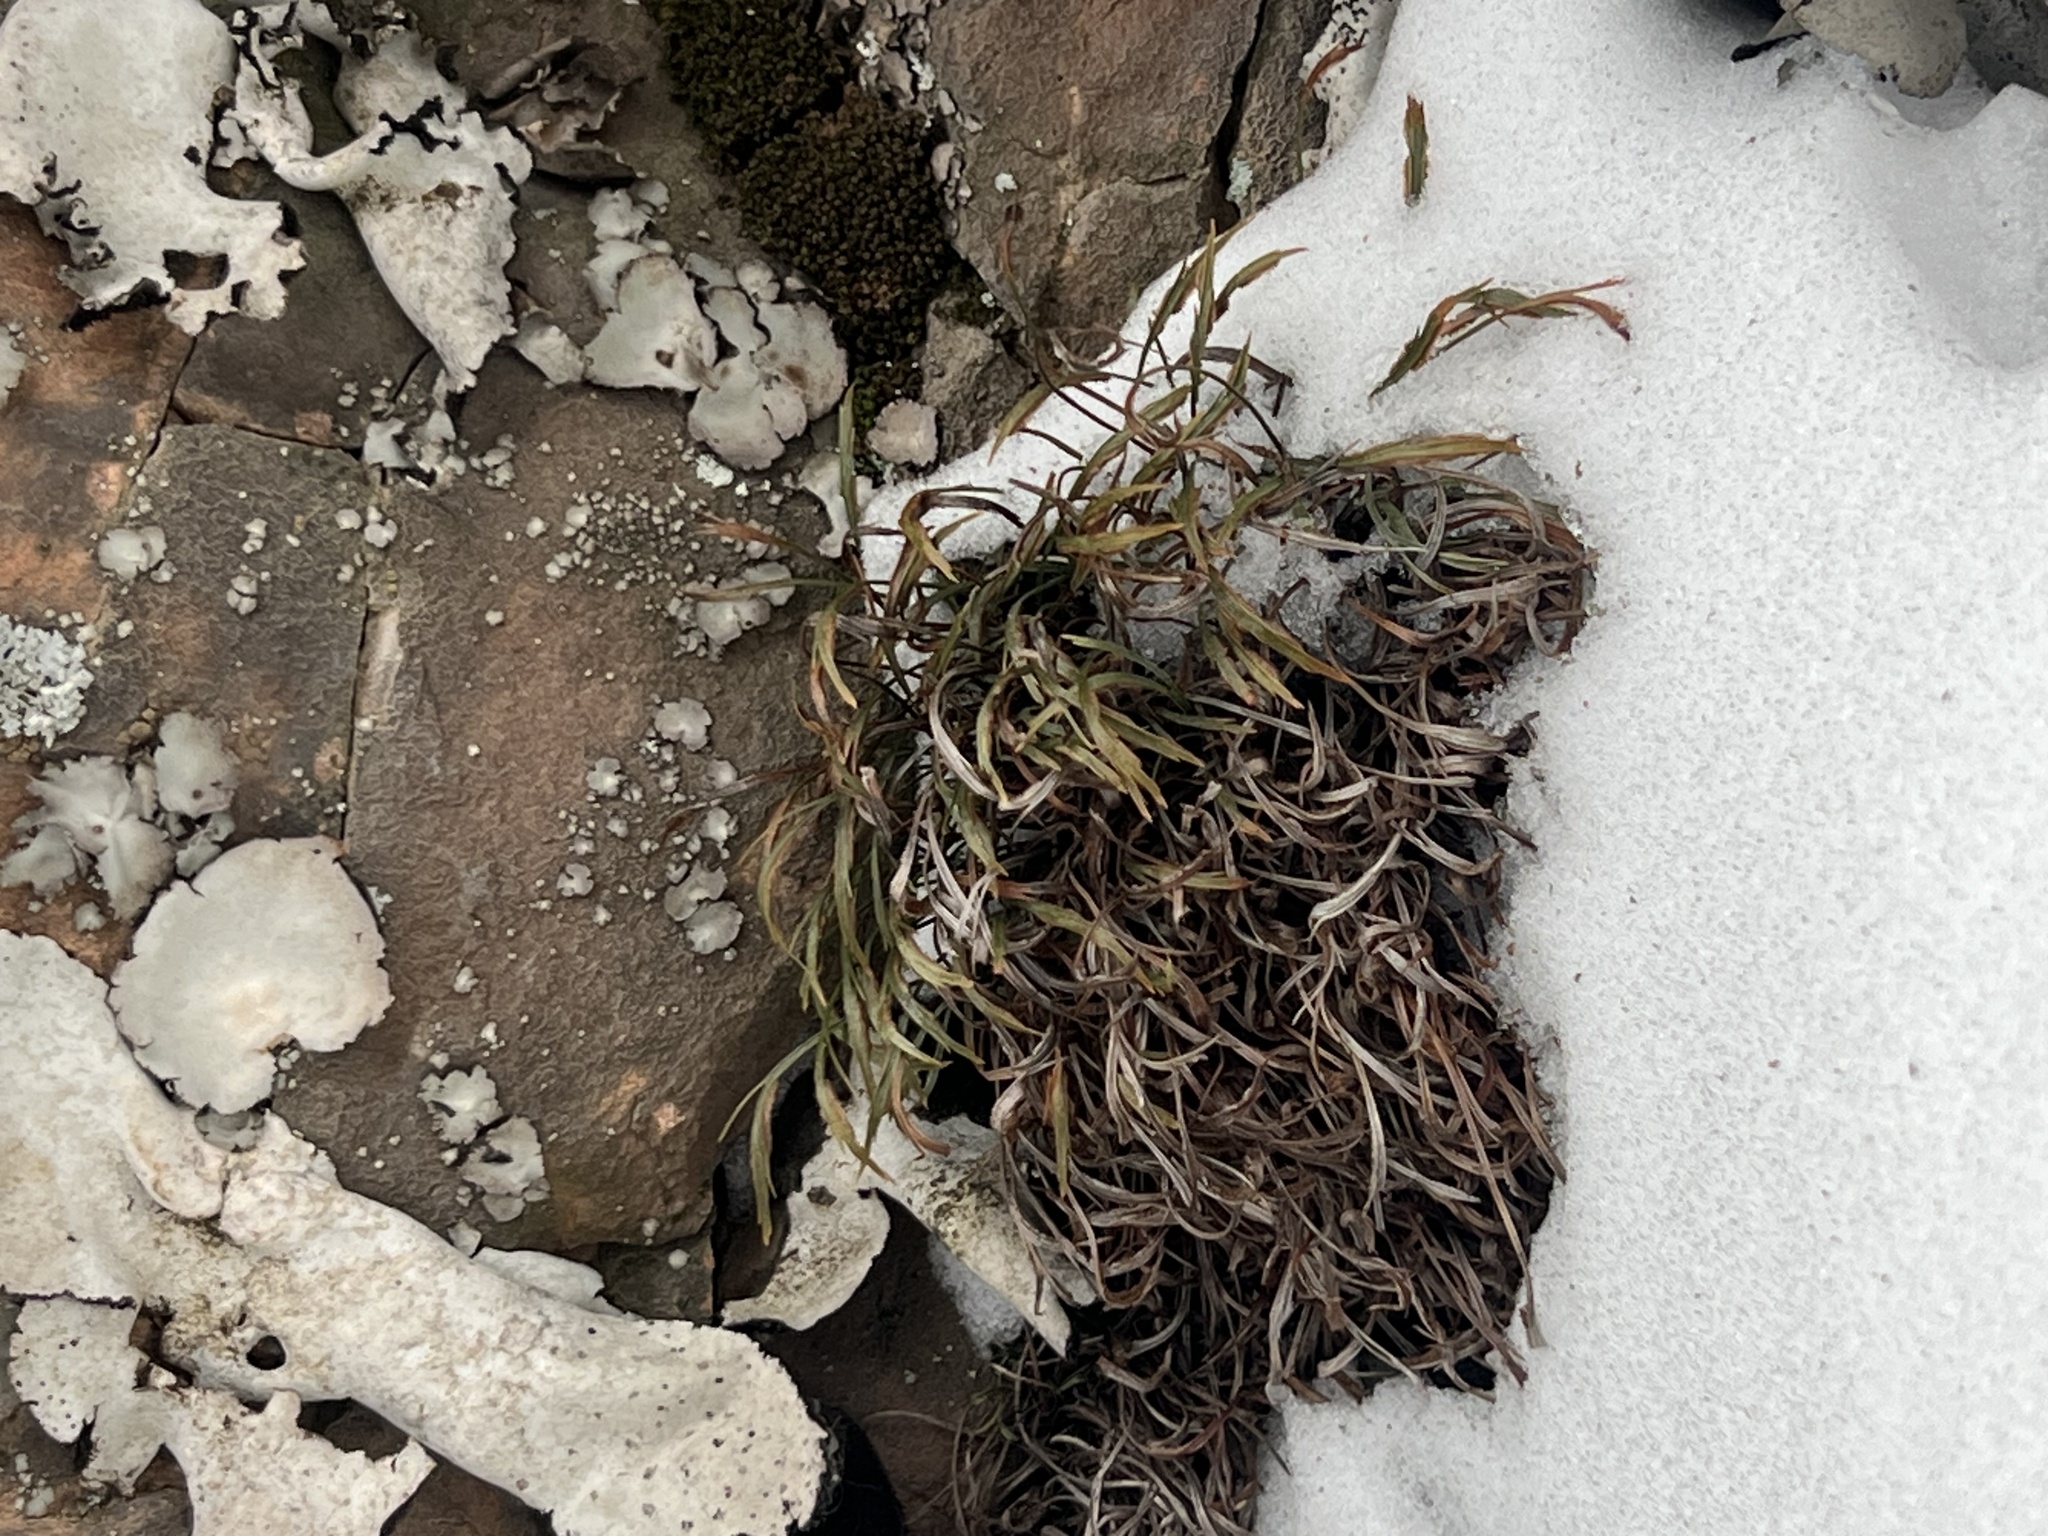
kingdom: Plantae
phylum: Tracheophyta
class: Polypodiopsida
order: Polypodiales
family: Aspleniaceae
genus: Asplenium
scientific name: Asplenium septentrionale
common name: Forked spleenwort
